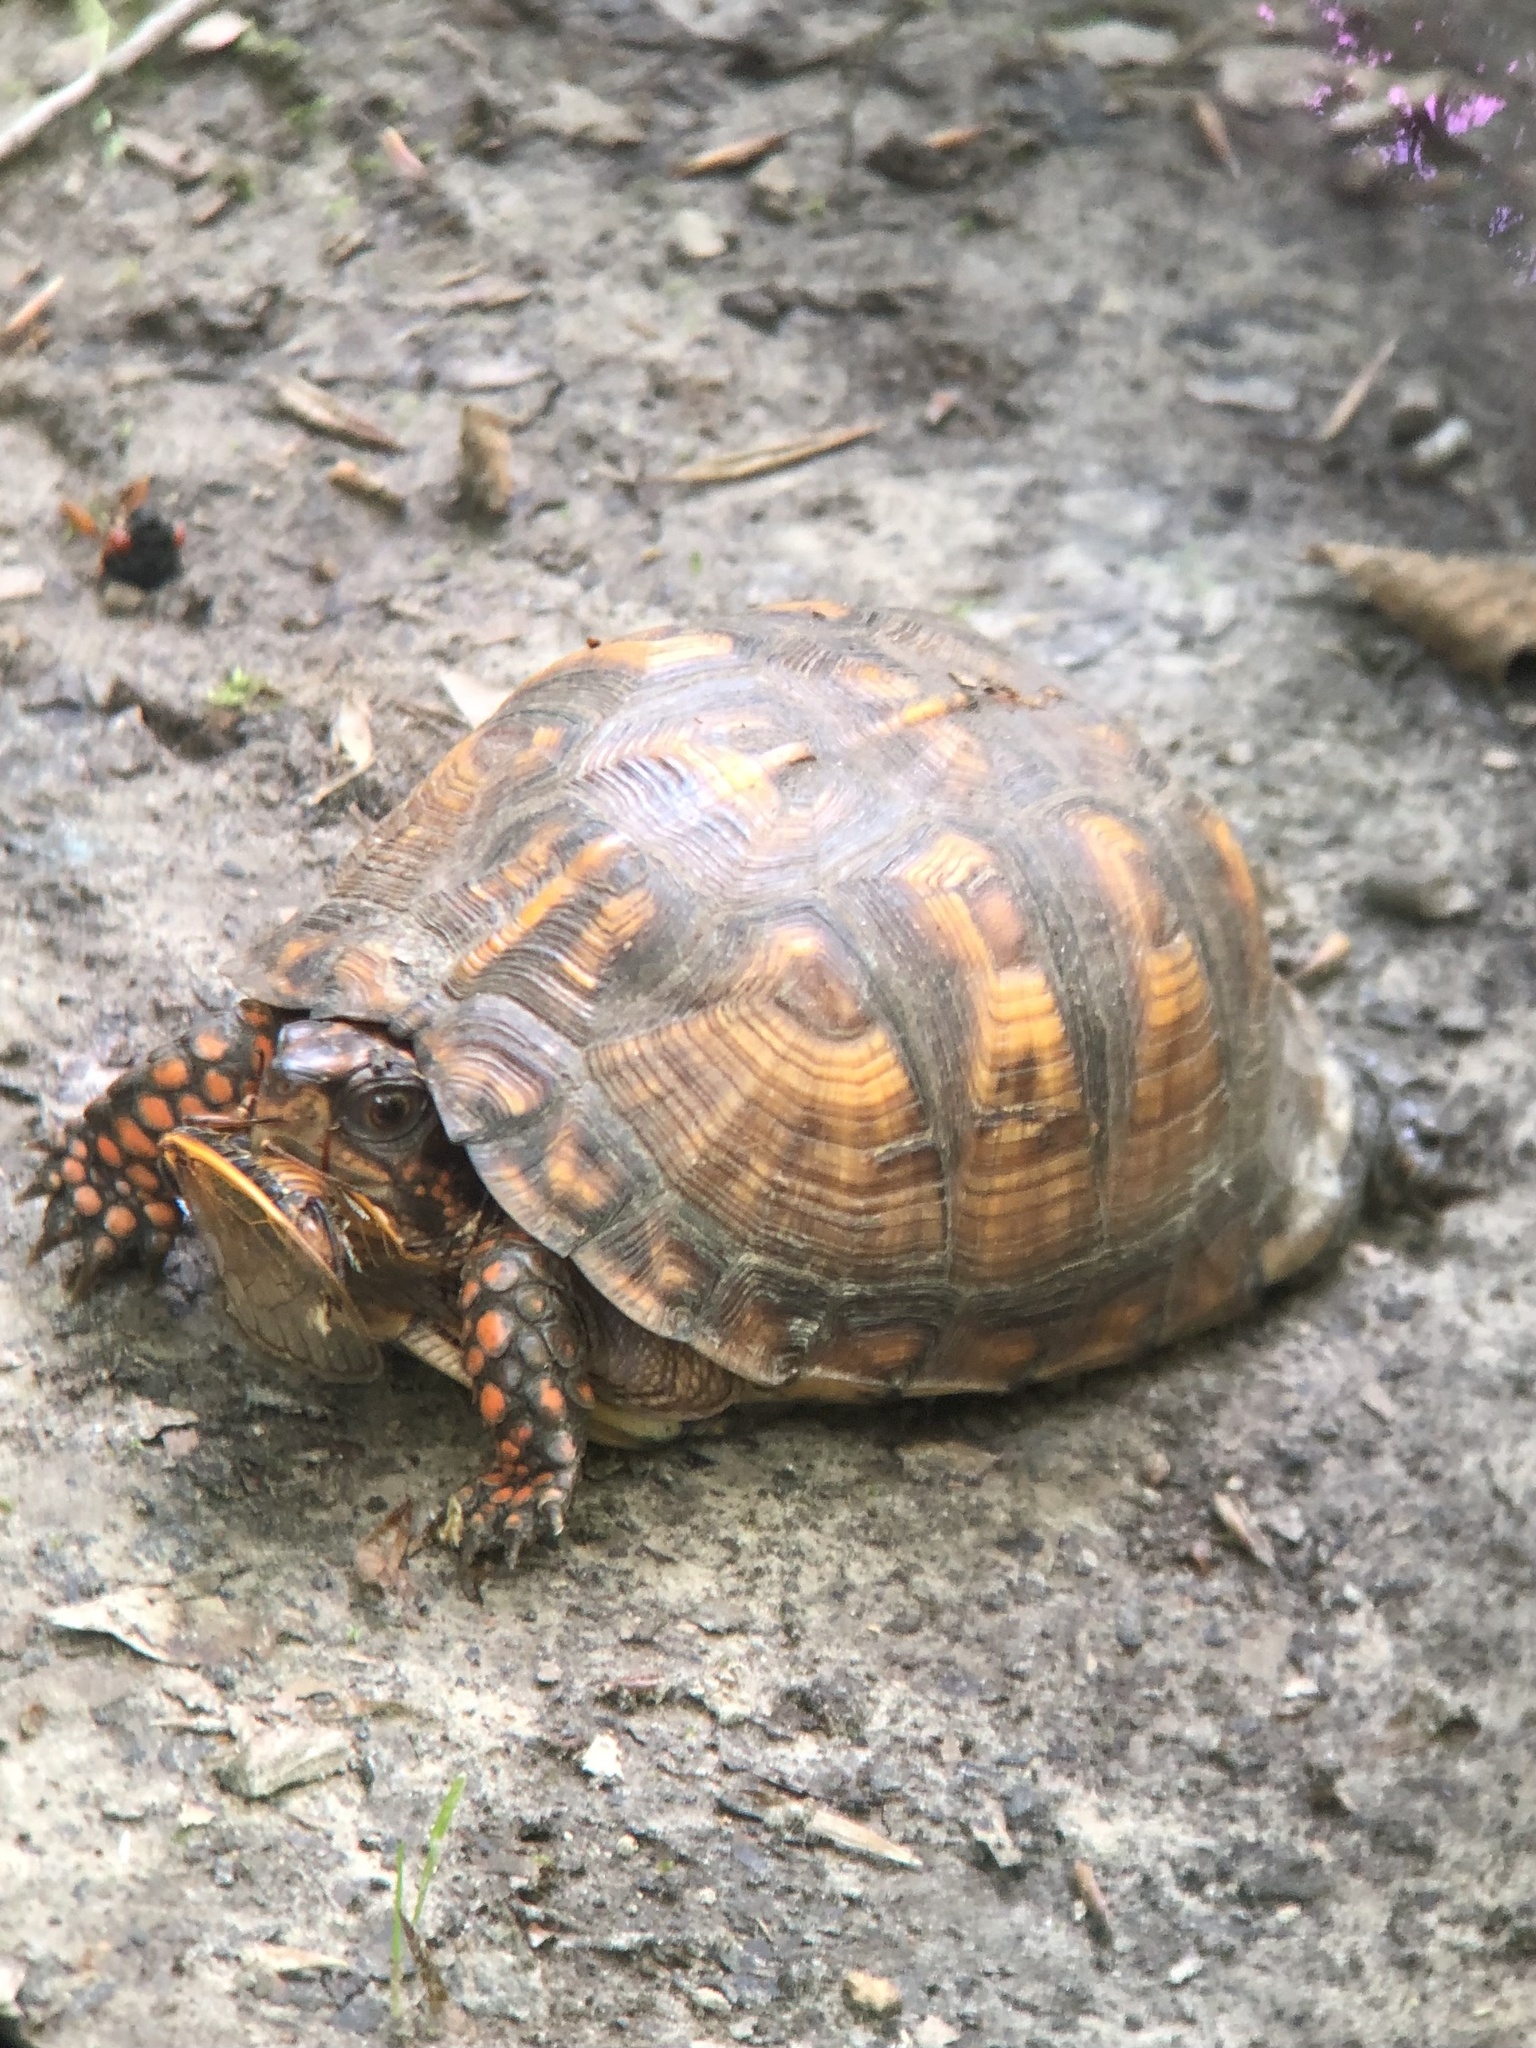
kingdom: Animalia
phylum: Chordata
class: Testudines
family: Emydidae
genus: Terrapene
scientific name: Terrapene carolina
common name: Common box turtle
